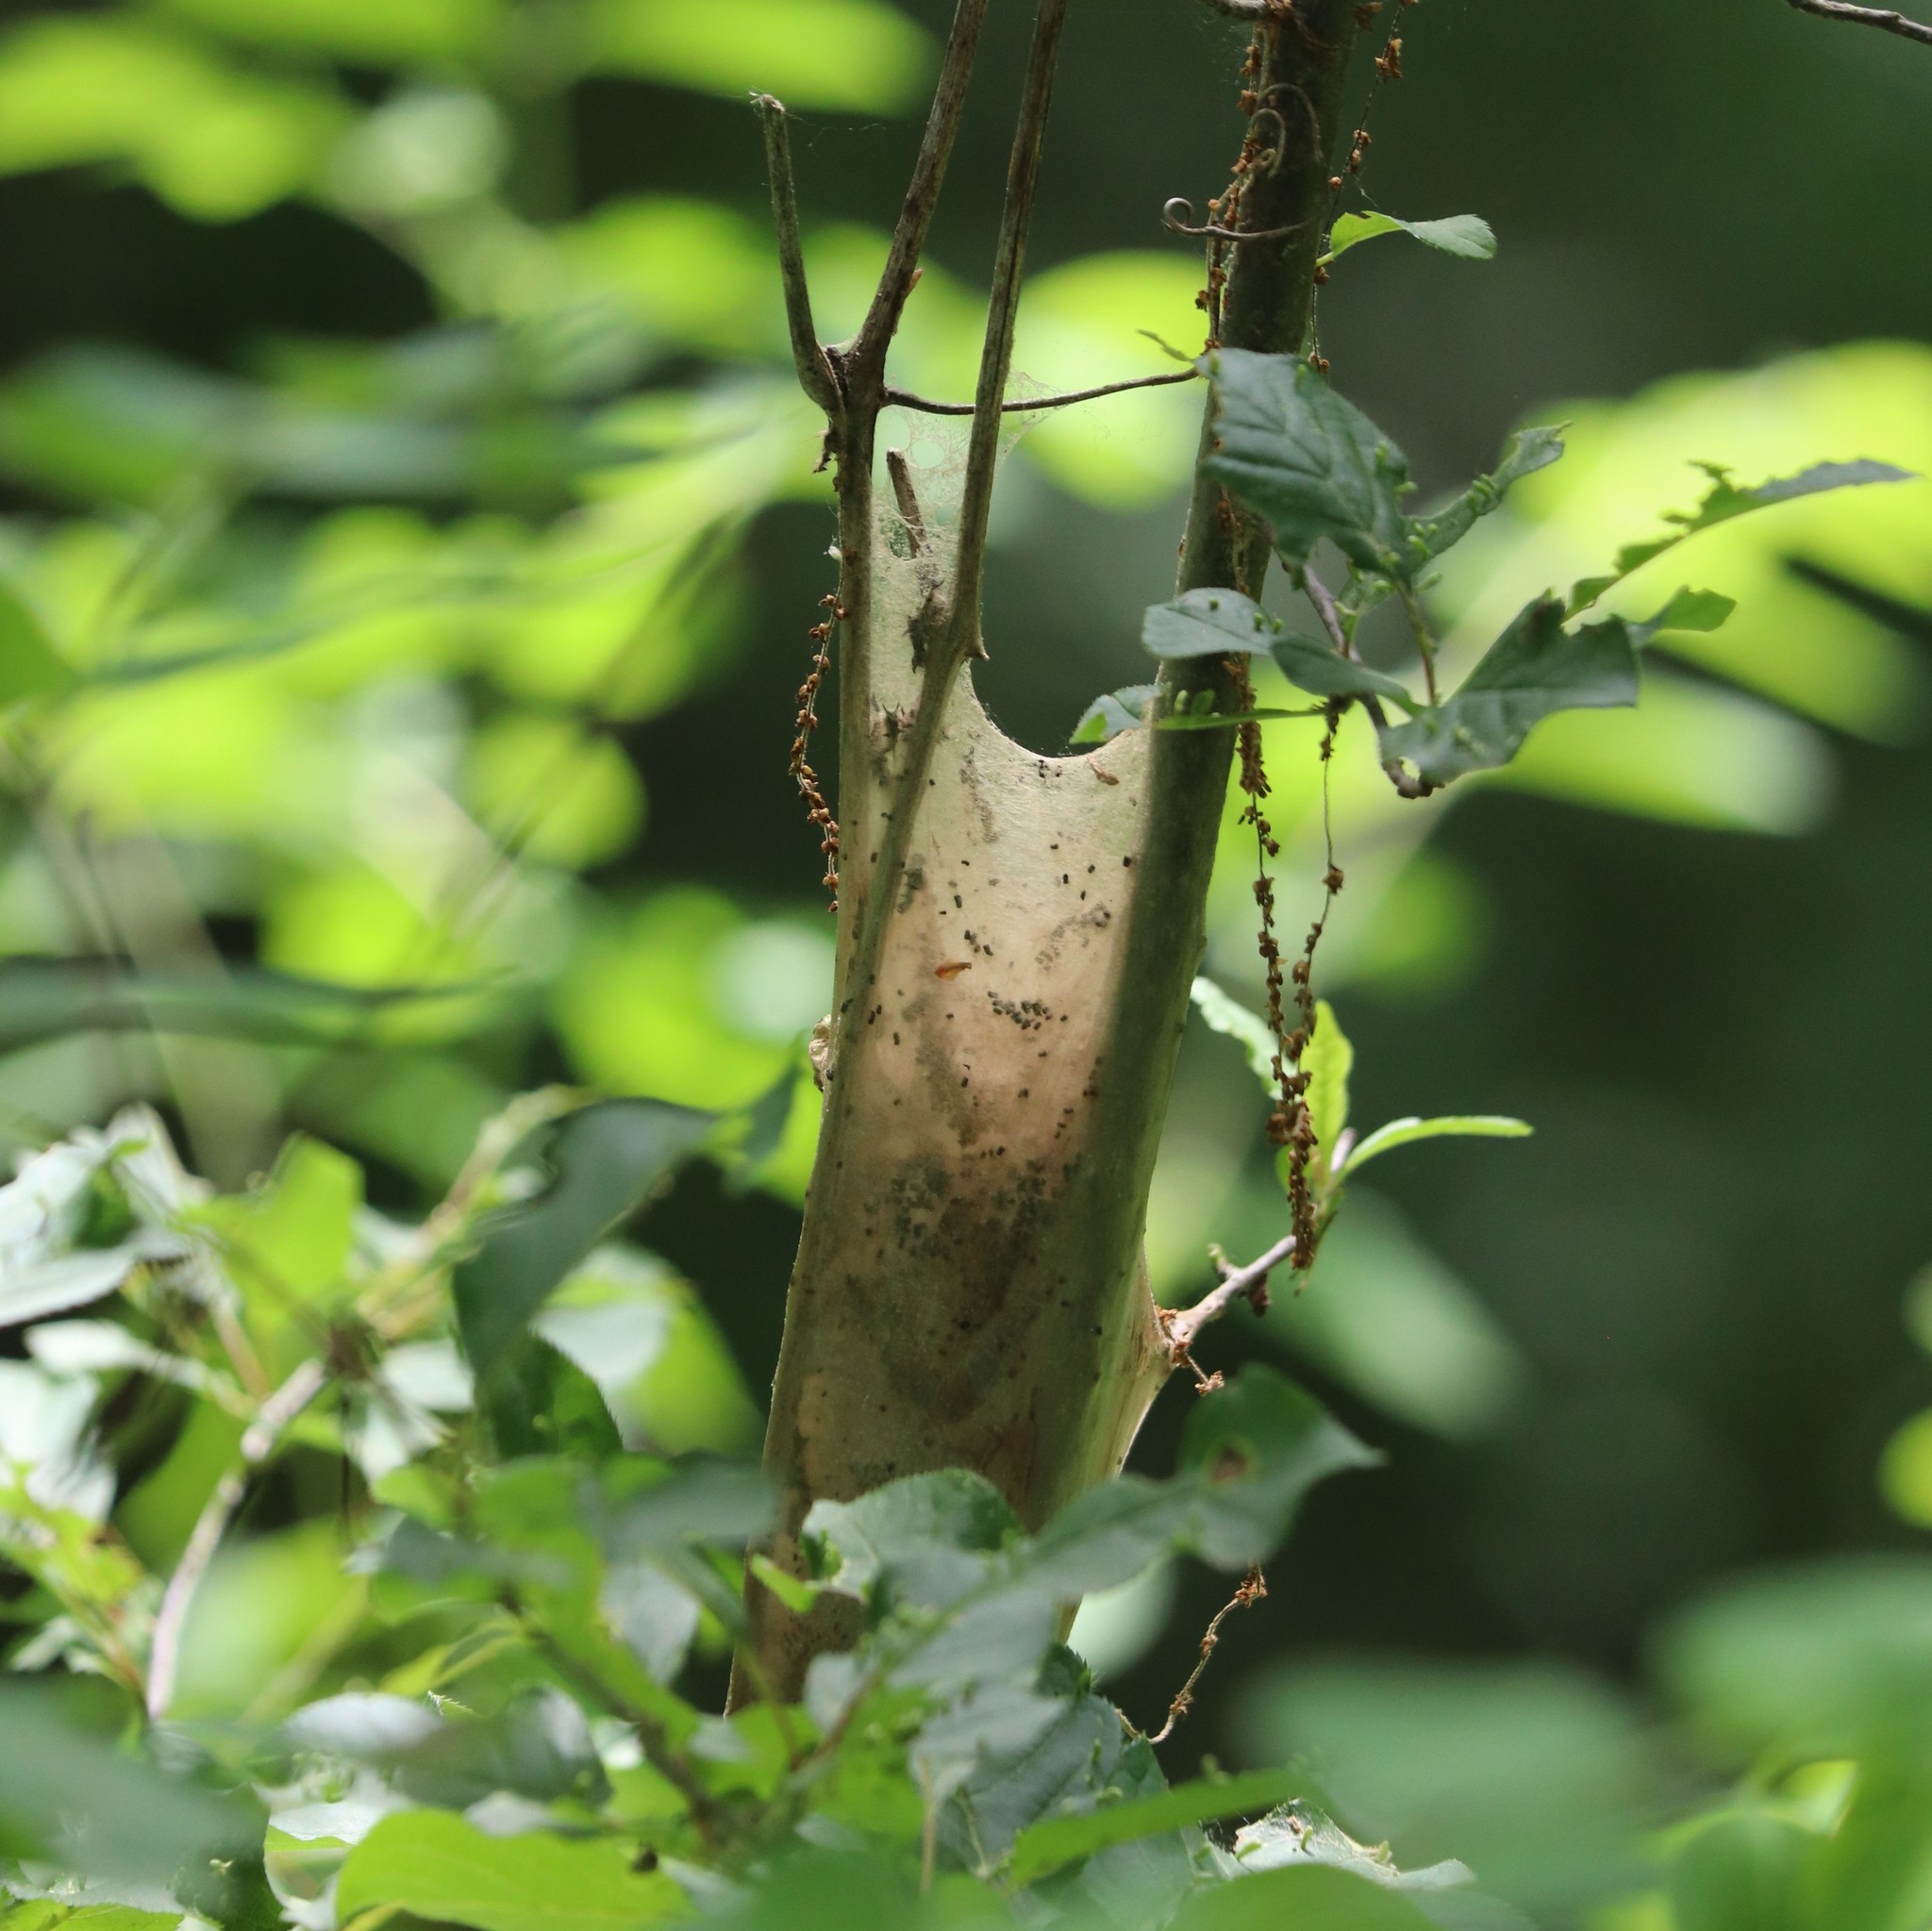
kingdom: Animalia
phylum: Arthropoda
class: Insecta
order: Lepidoptera
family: Lasiocampidae
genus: Malacosoma
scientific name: Malacosoma americana
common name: Eastern tent caterpillar moth
